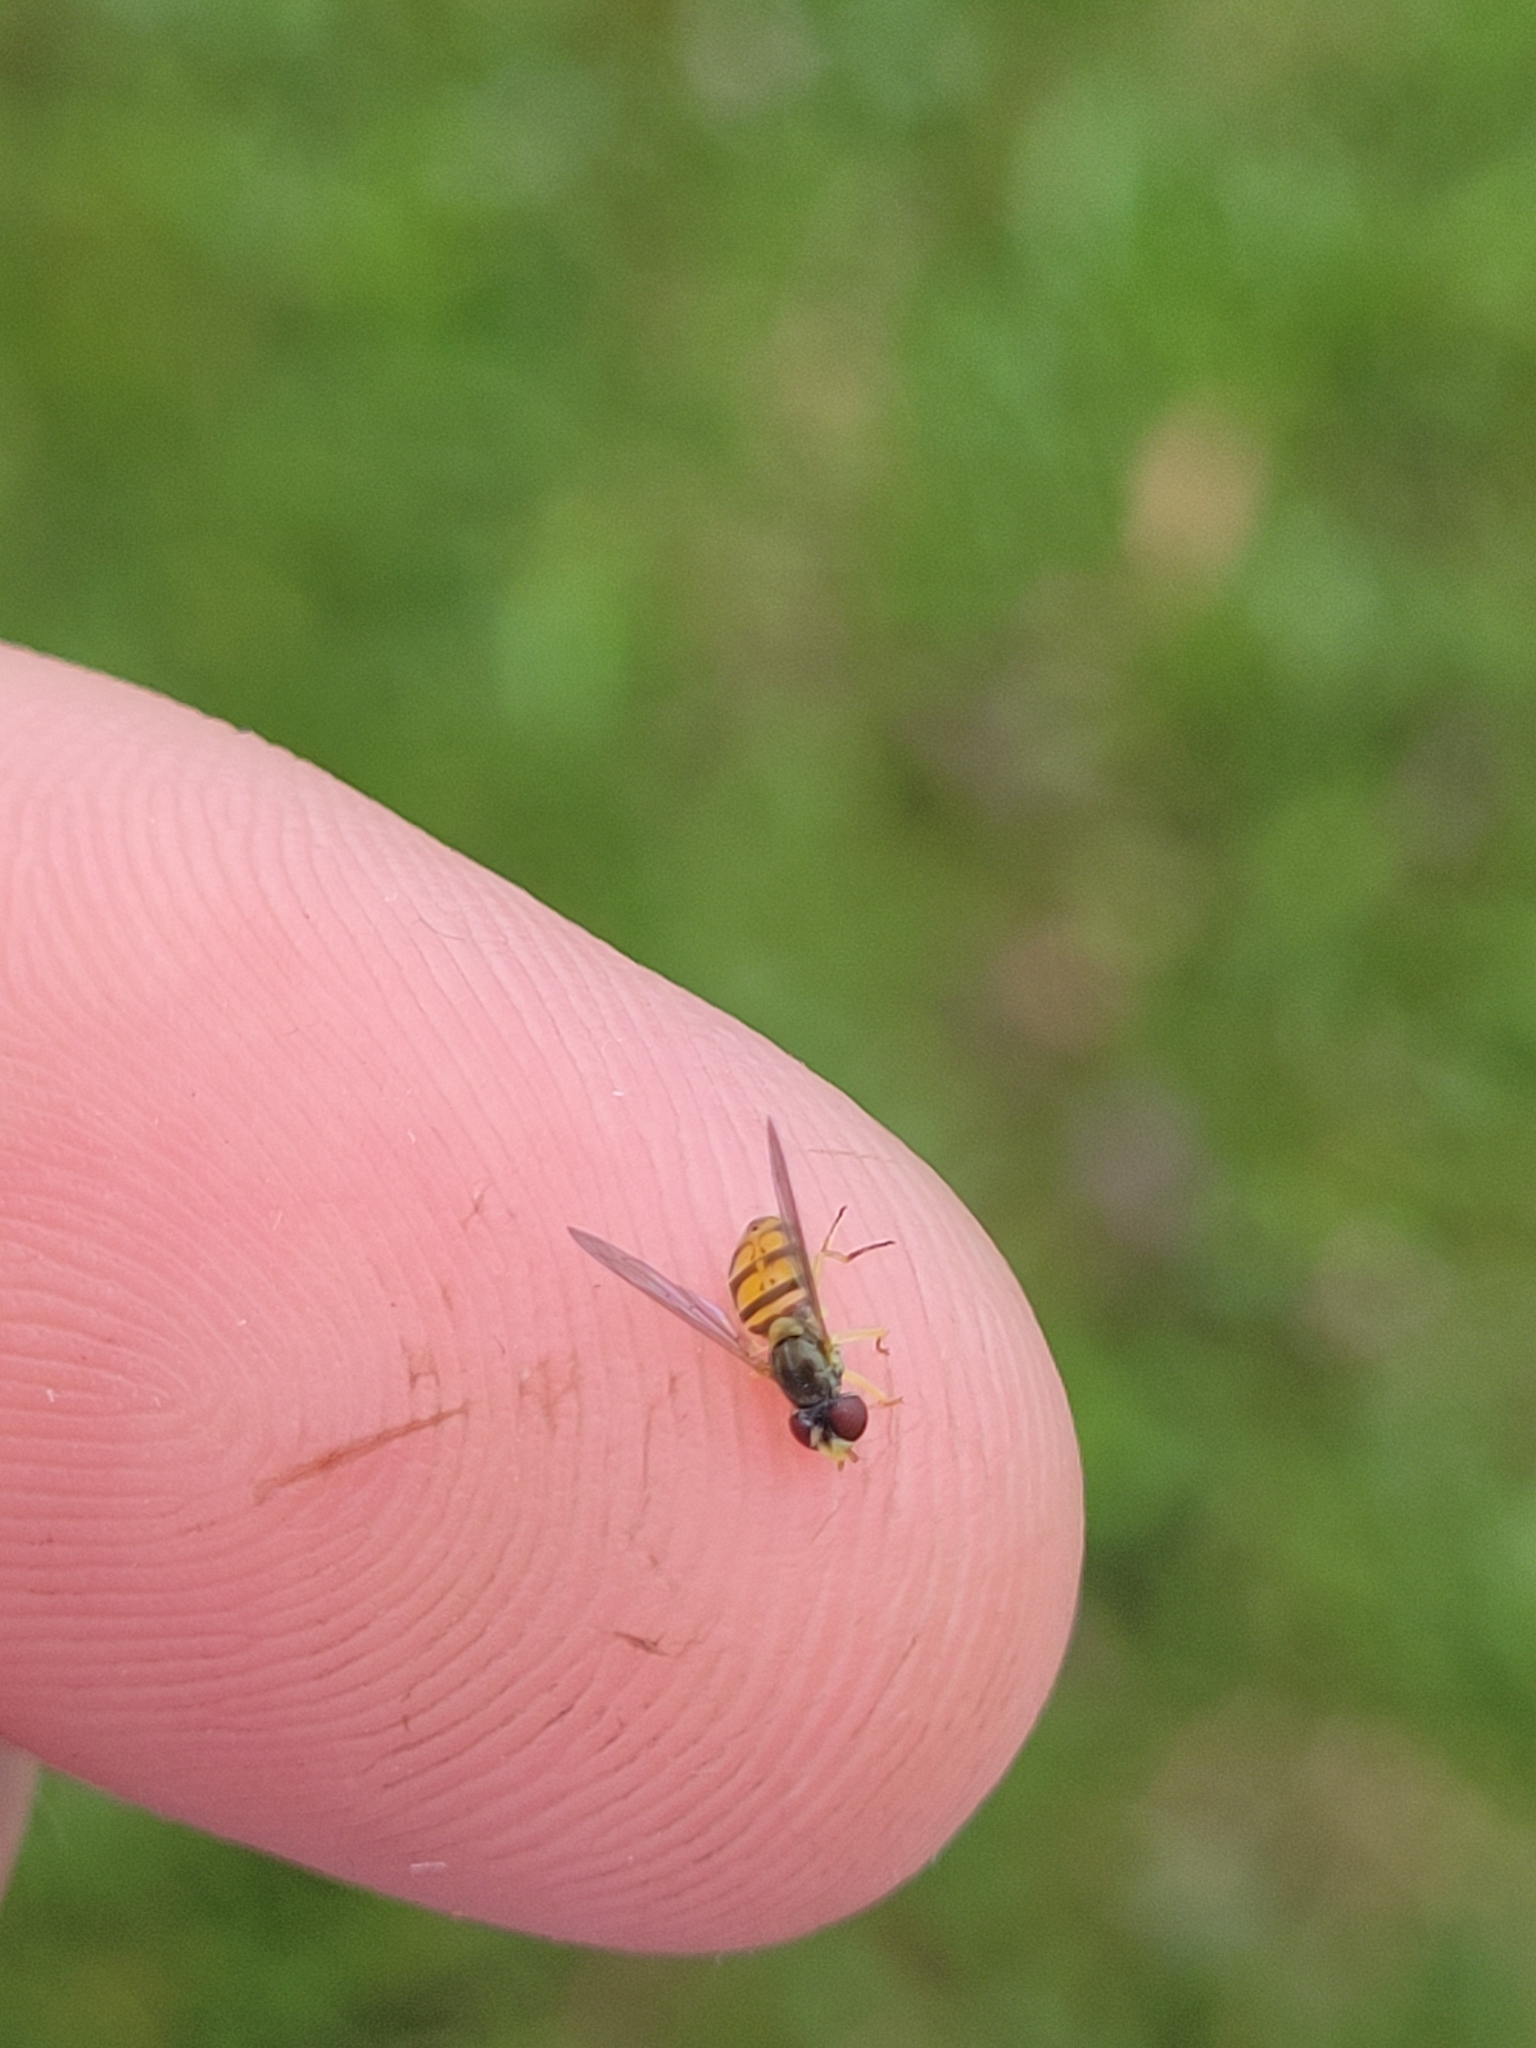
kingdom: Animalia
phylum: Arthropoda
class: Insecta
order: Diptera
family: Syrphidae
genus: Toxomerus
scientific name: Toxomerus marginatus
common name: Syrphid fly
